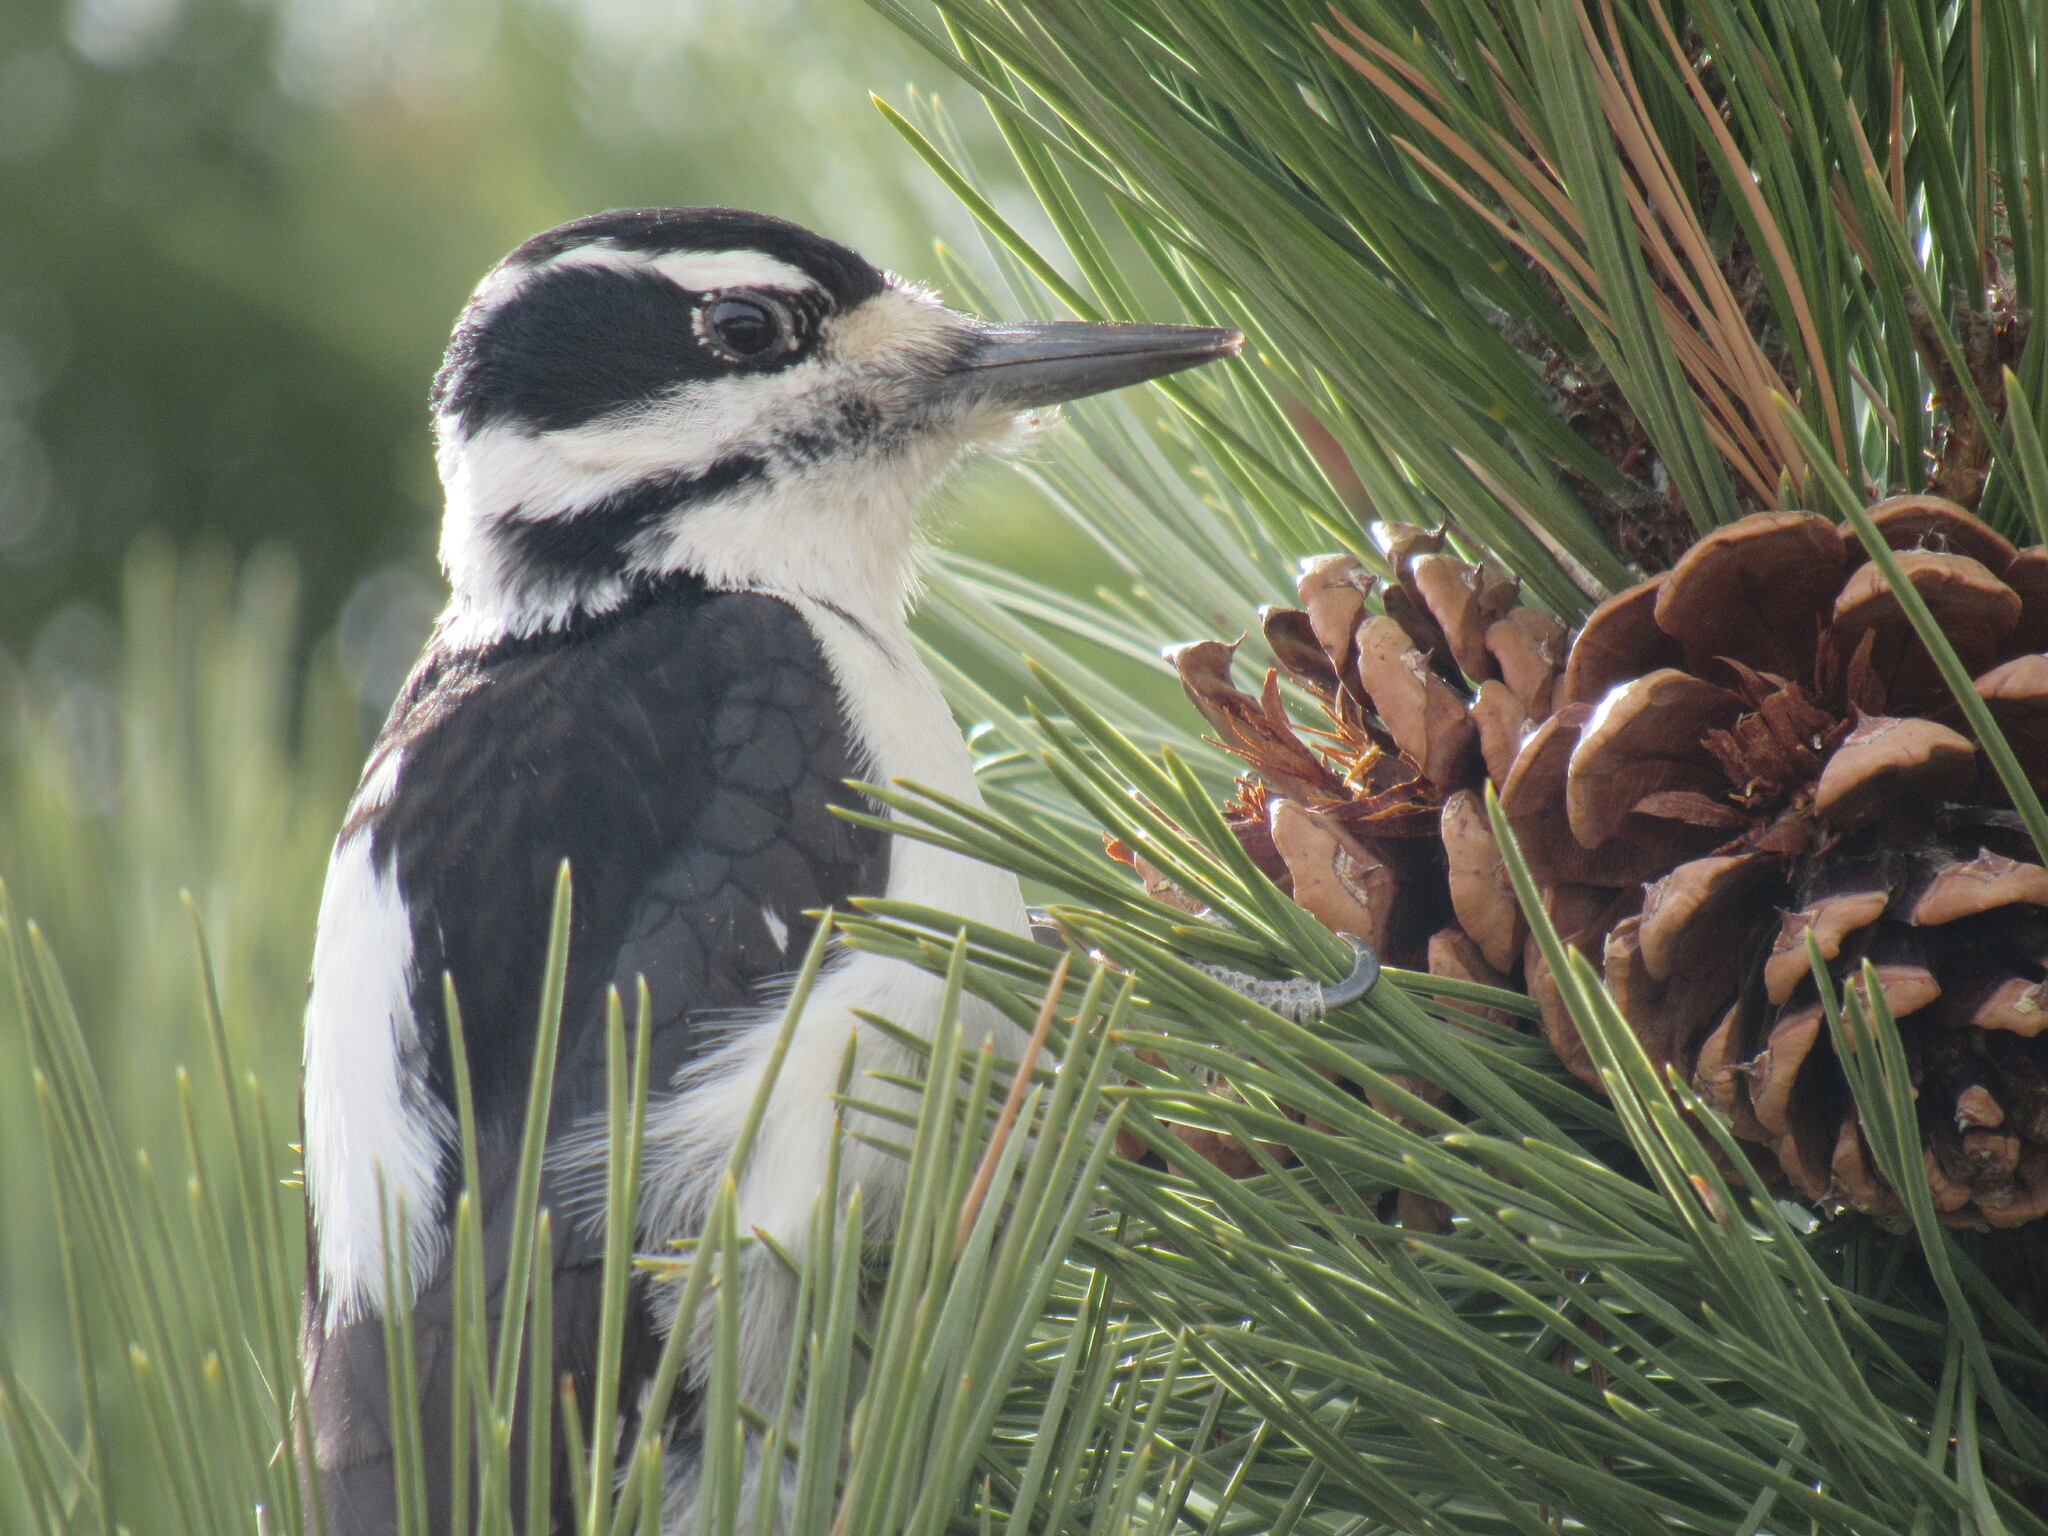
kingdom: Animalia
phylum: Chordata
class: Aves
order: Piciformes
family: Picidae
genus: Leuconotopicus
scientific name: Leuconotopicus villosus
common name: Hairy woodpecker
